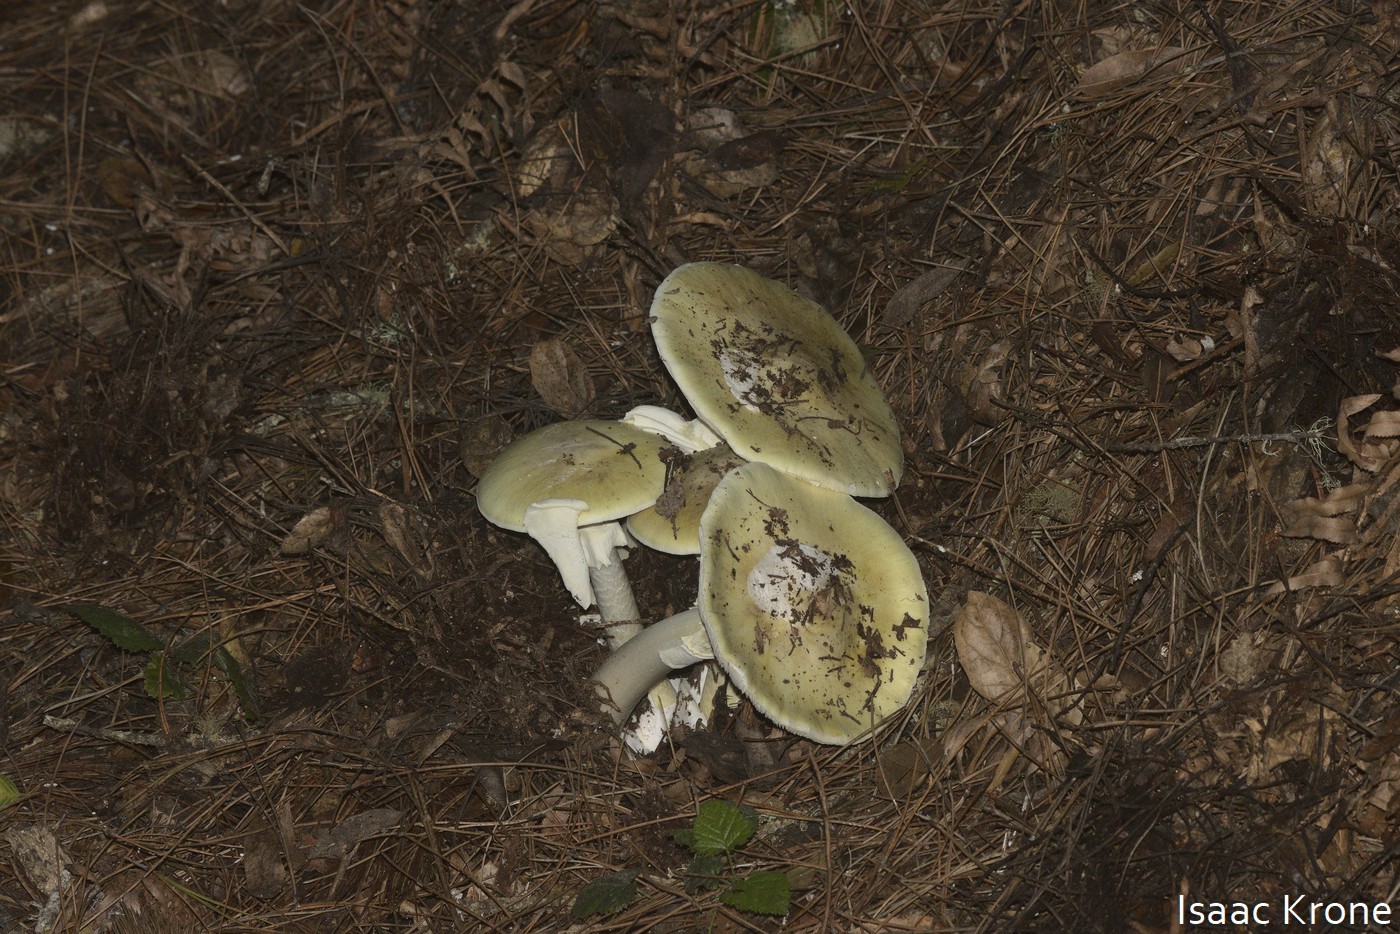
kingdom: Fungi
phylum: Basidiomycota
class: Agaricomycetes
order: Agaricales
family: Amanitaceae
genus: Amanita
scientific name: Amanita phalloides
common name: Death cap
